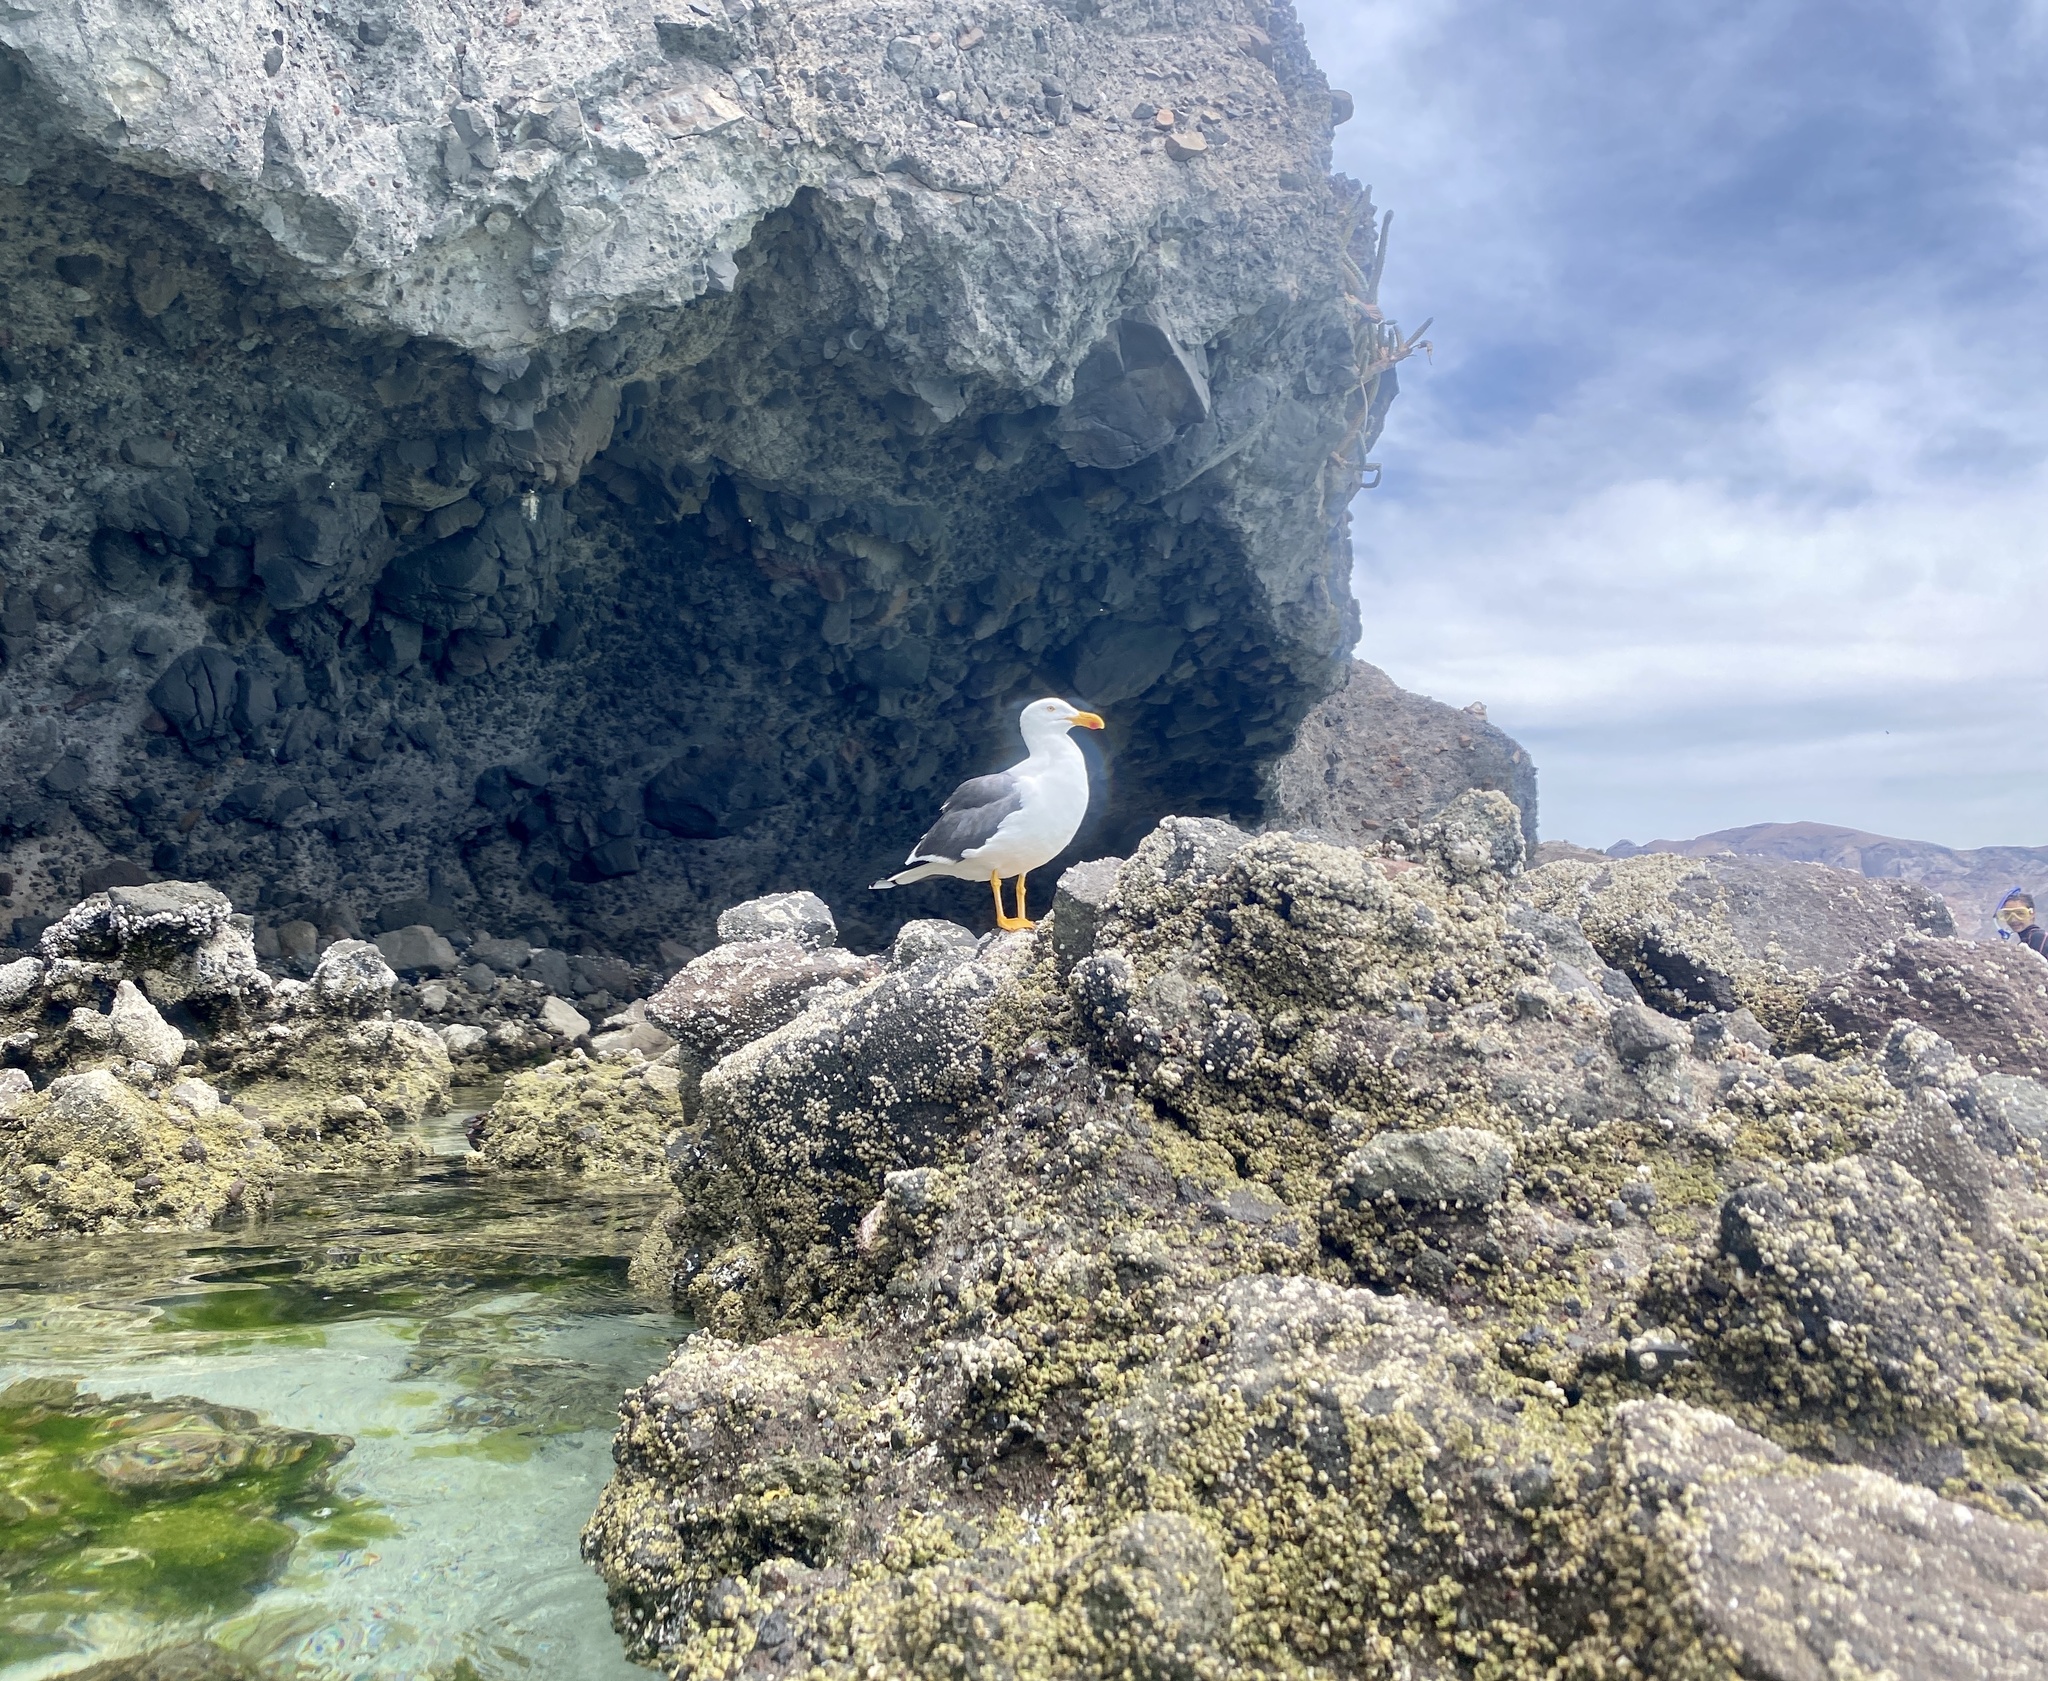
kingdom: Animalia
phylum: Chordata
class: Aves
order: Charadriiformes
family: Laridae
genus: Larus
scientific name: Larus livens
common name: Yellow-footed gull
